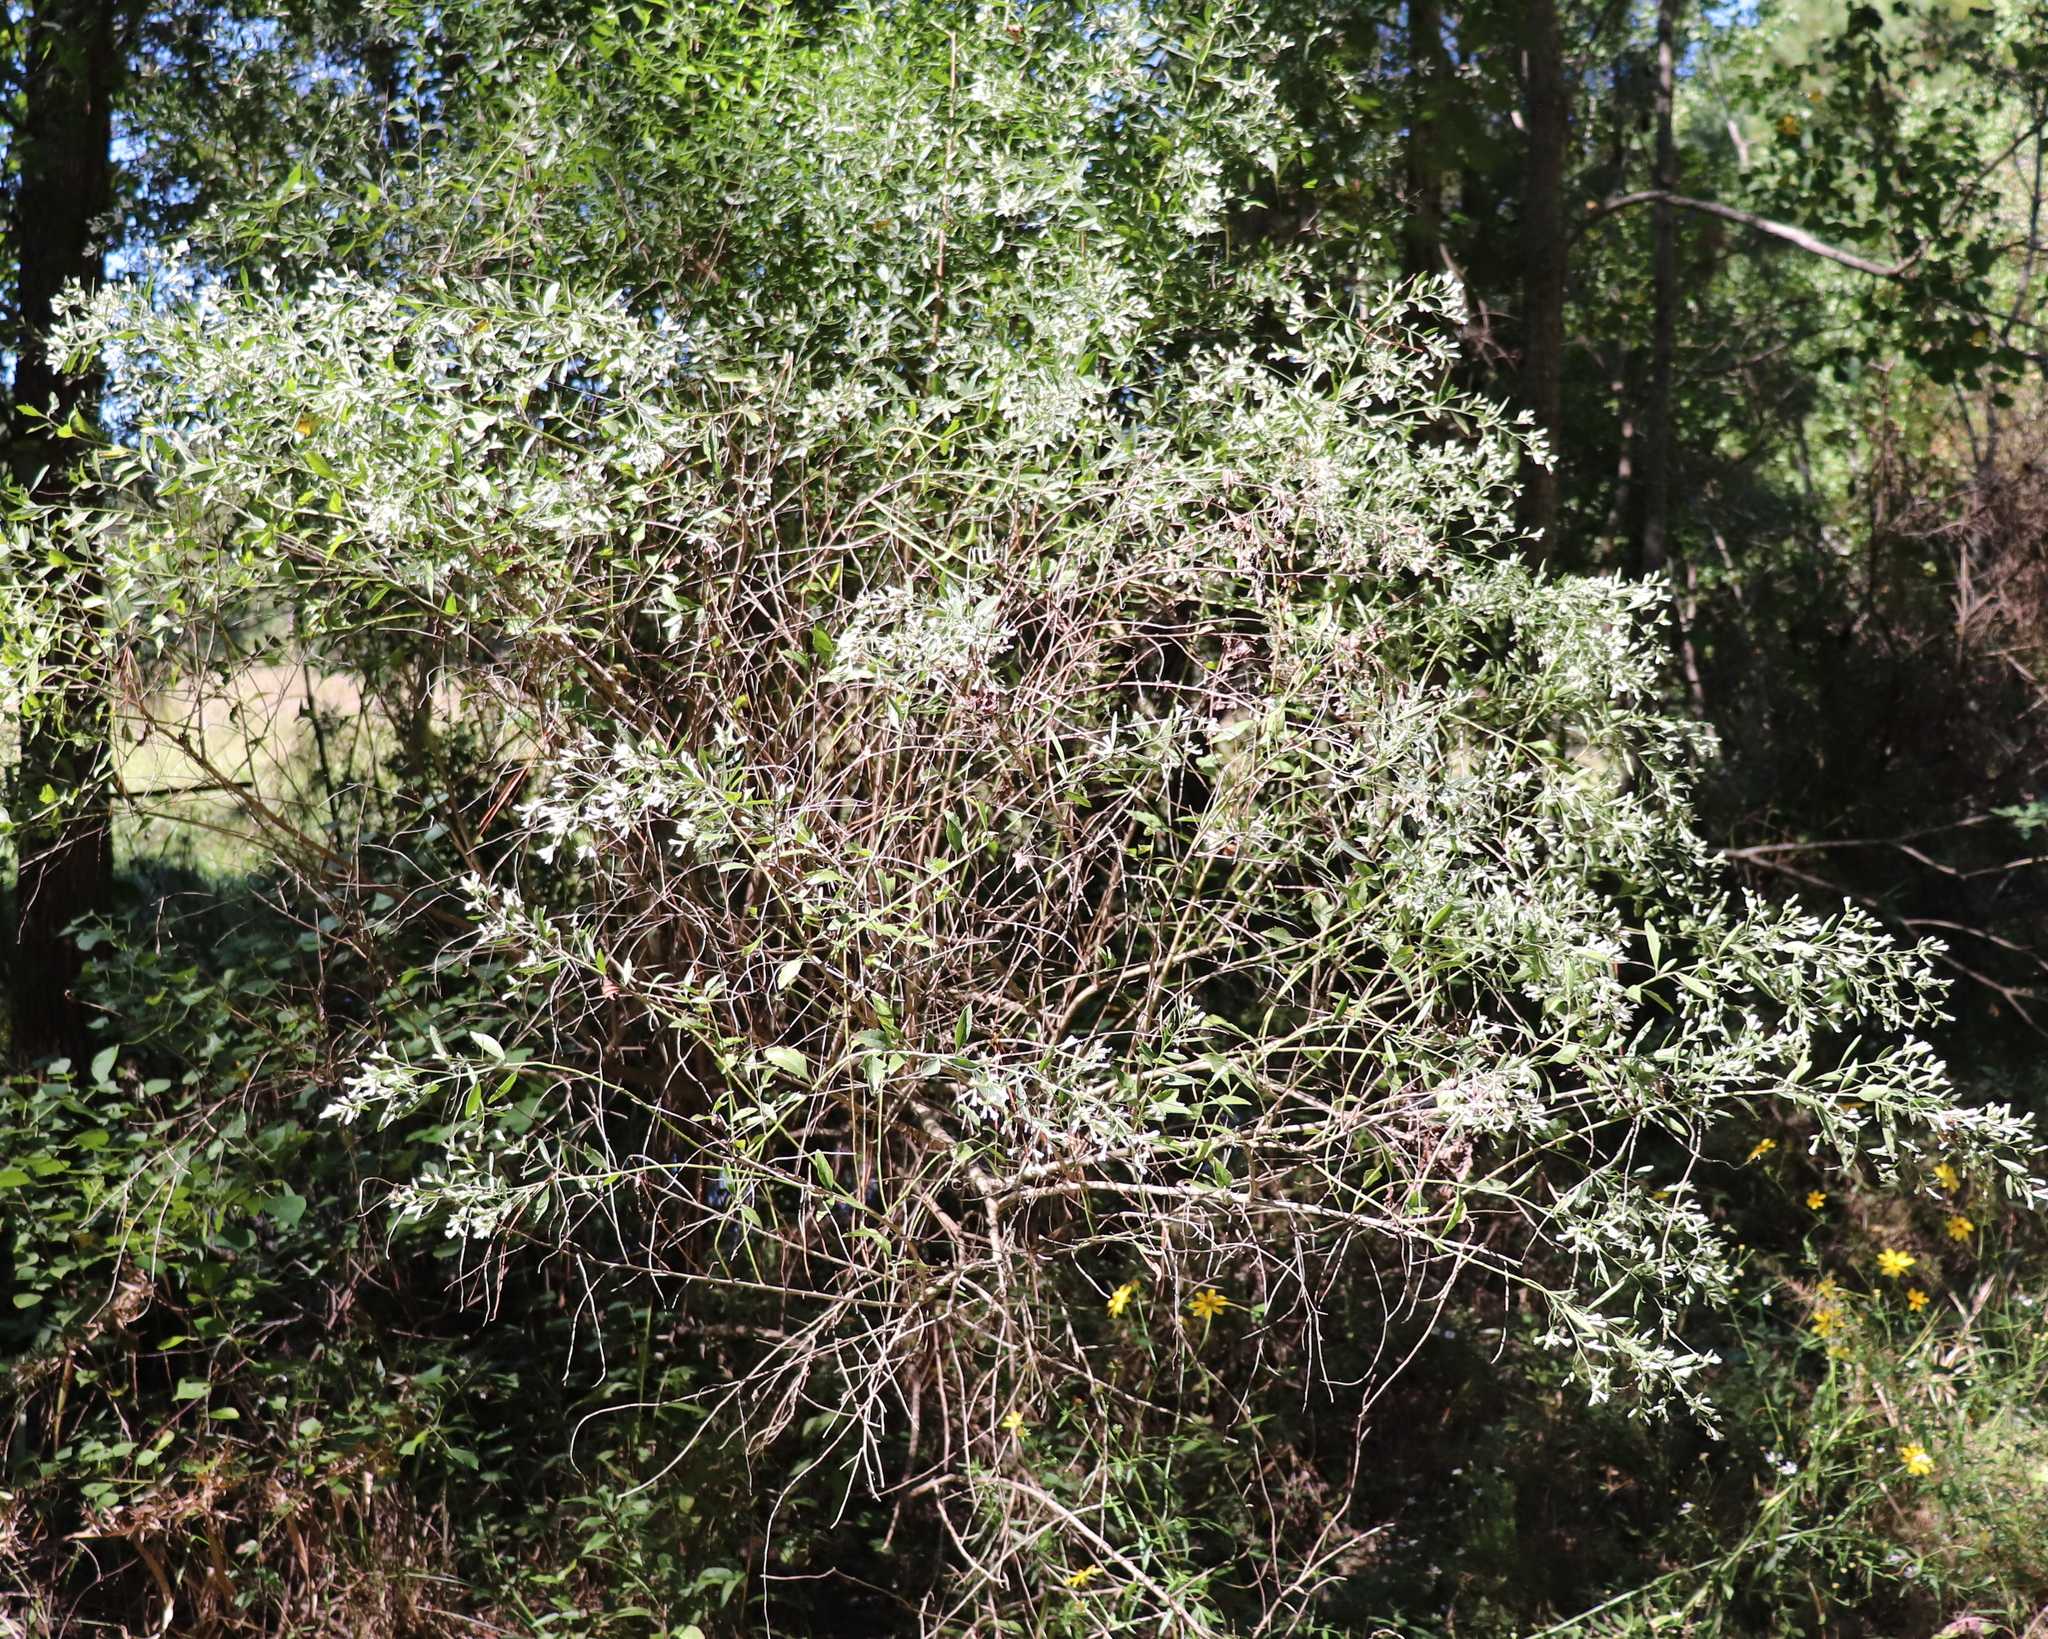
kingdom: Plantae
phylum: Tracheophyta
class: Magnoliopsida
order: Asterales
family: Asteraceae
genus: Baccharis
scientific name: Baccharis halimifolia
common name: Eastern baccharis
